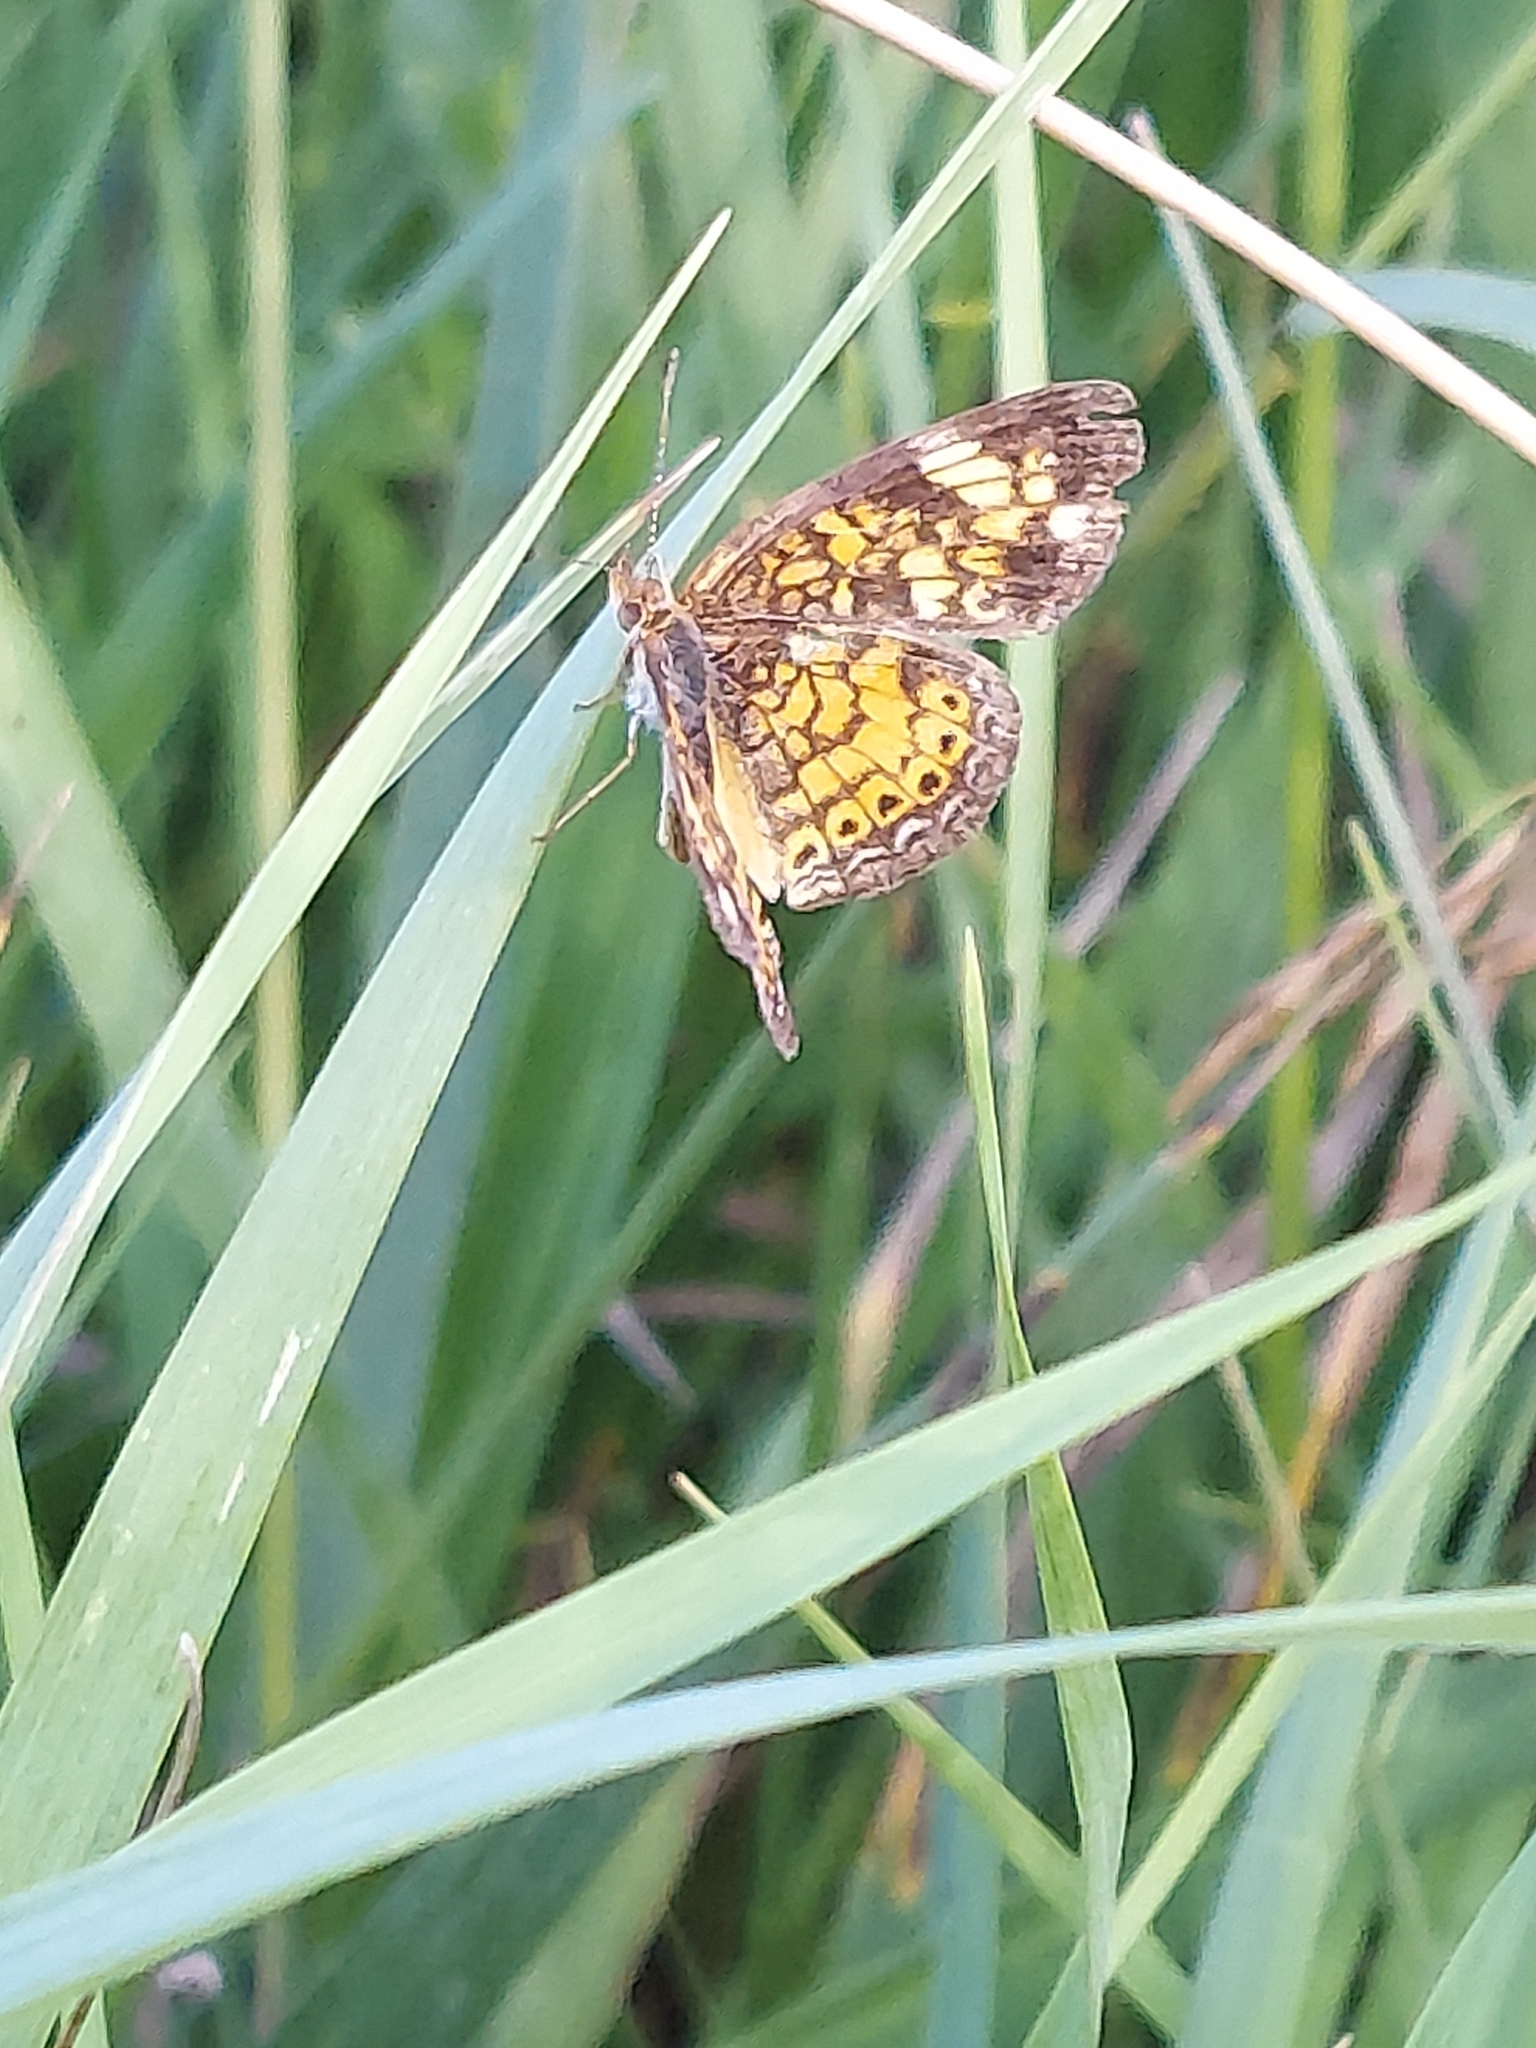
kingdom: Animalia
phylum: Arthropoda
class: Insecta
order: Lepidoptera
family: Nymphalidae
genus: Phyciodes
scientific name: Phyciodes tharos
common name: Pearl crescent
